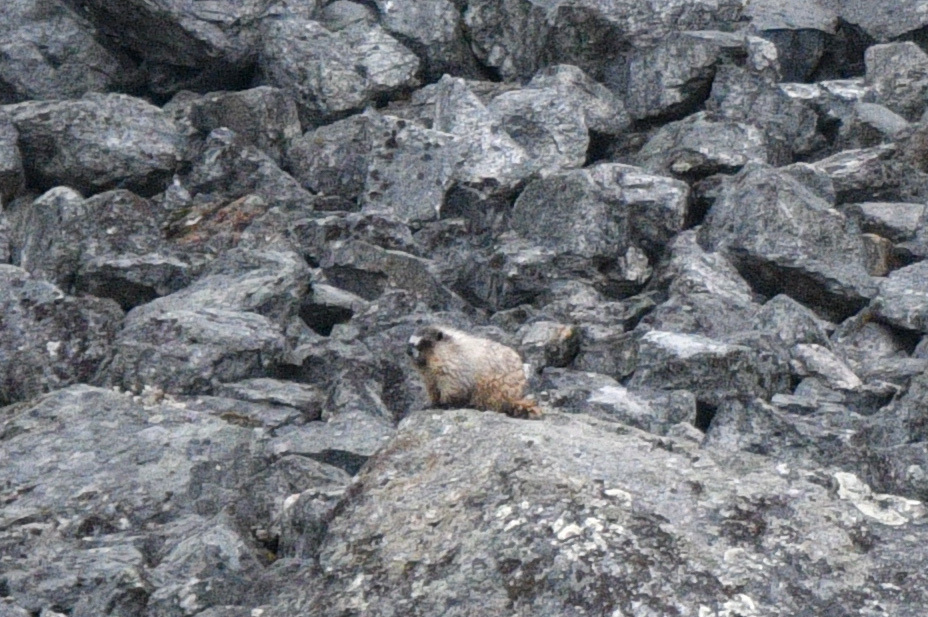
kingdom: Animalia
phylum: Chordata
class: Mammalia
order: Rodentia
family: Sciuridae
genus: Marmota
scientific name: Marmota caligata
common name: Hoary marmot
